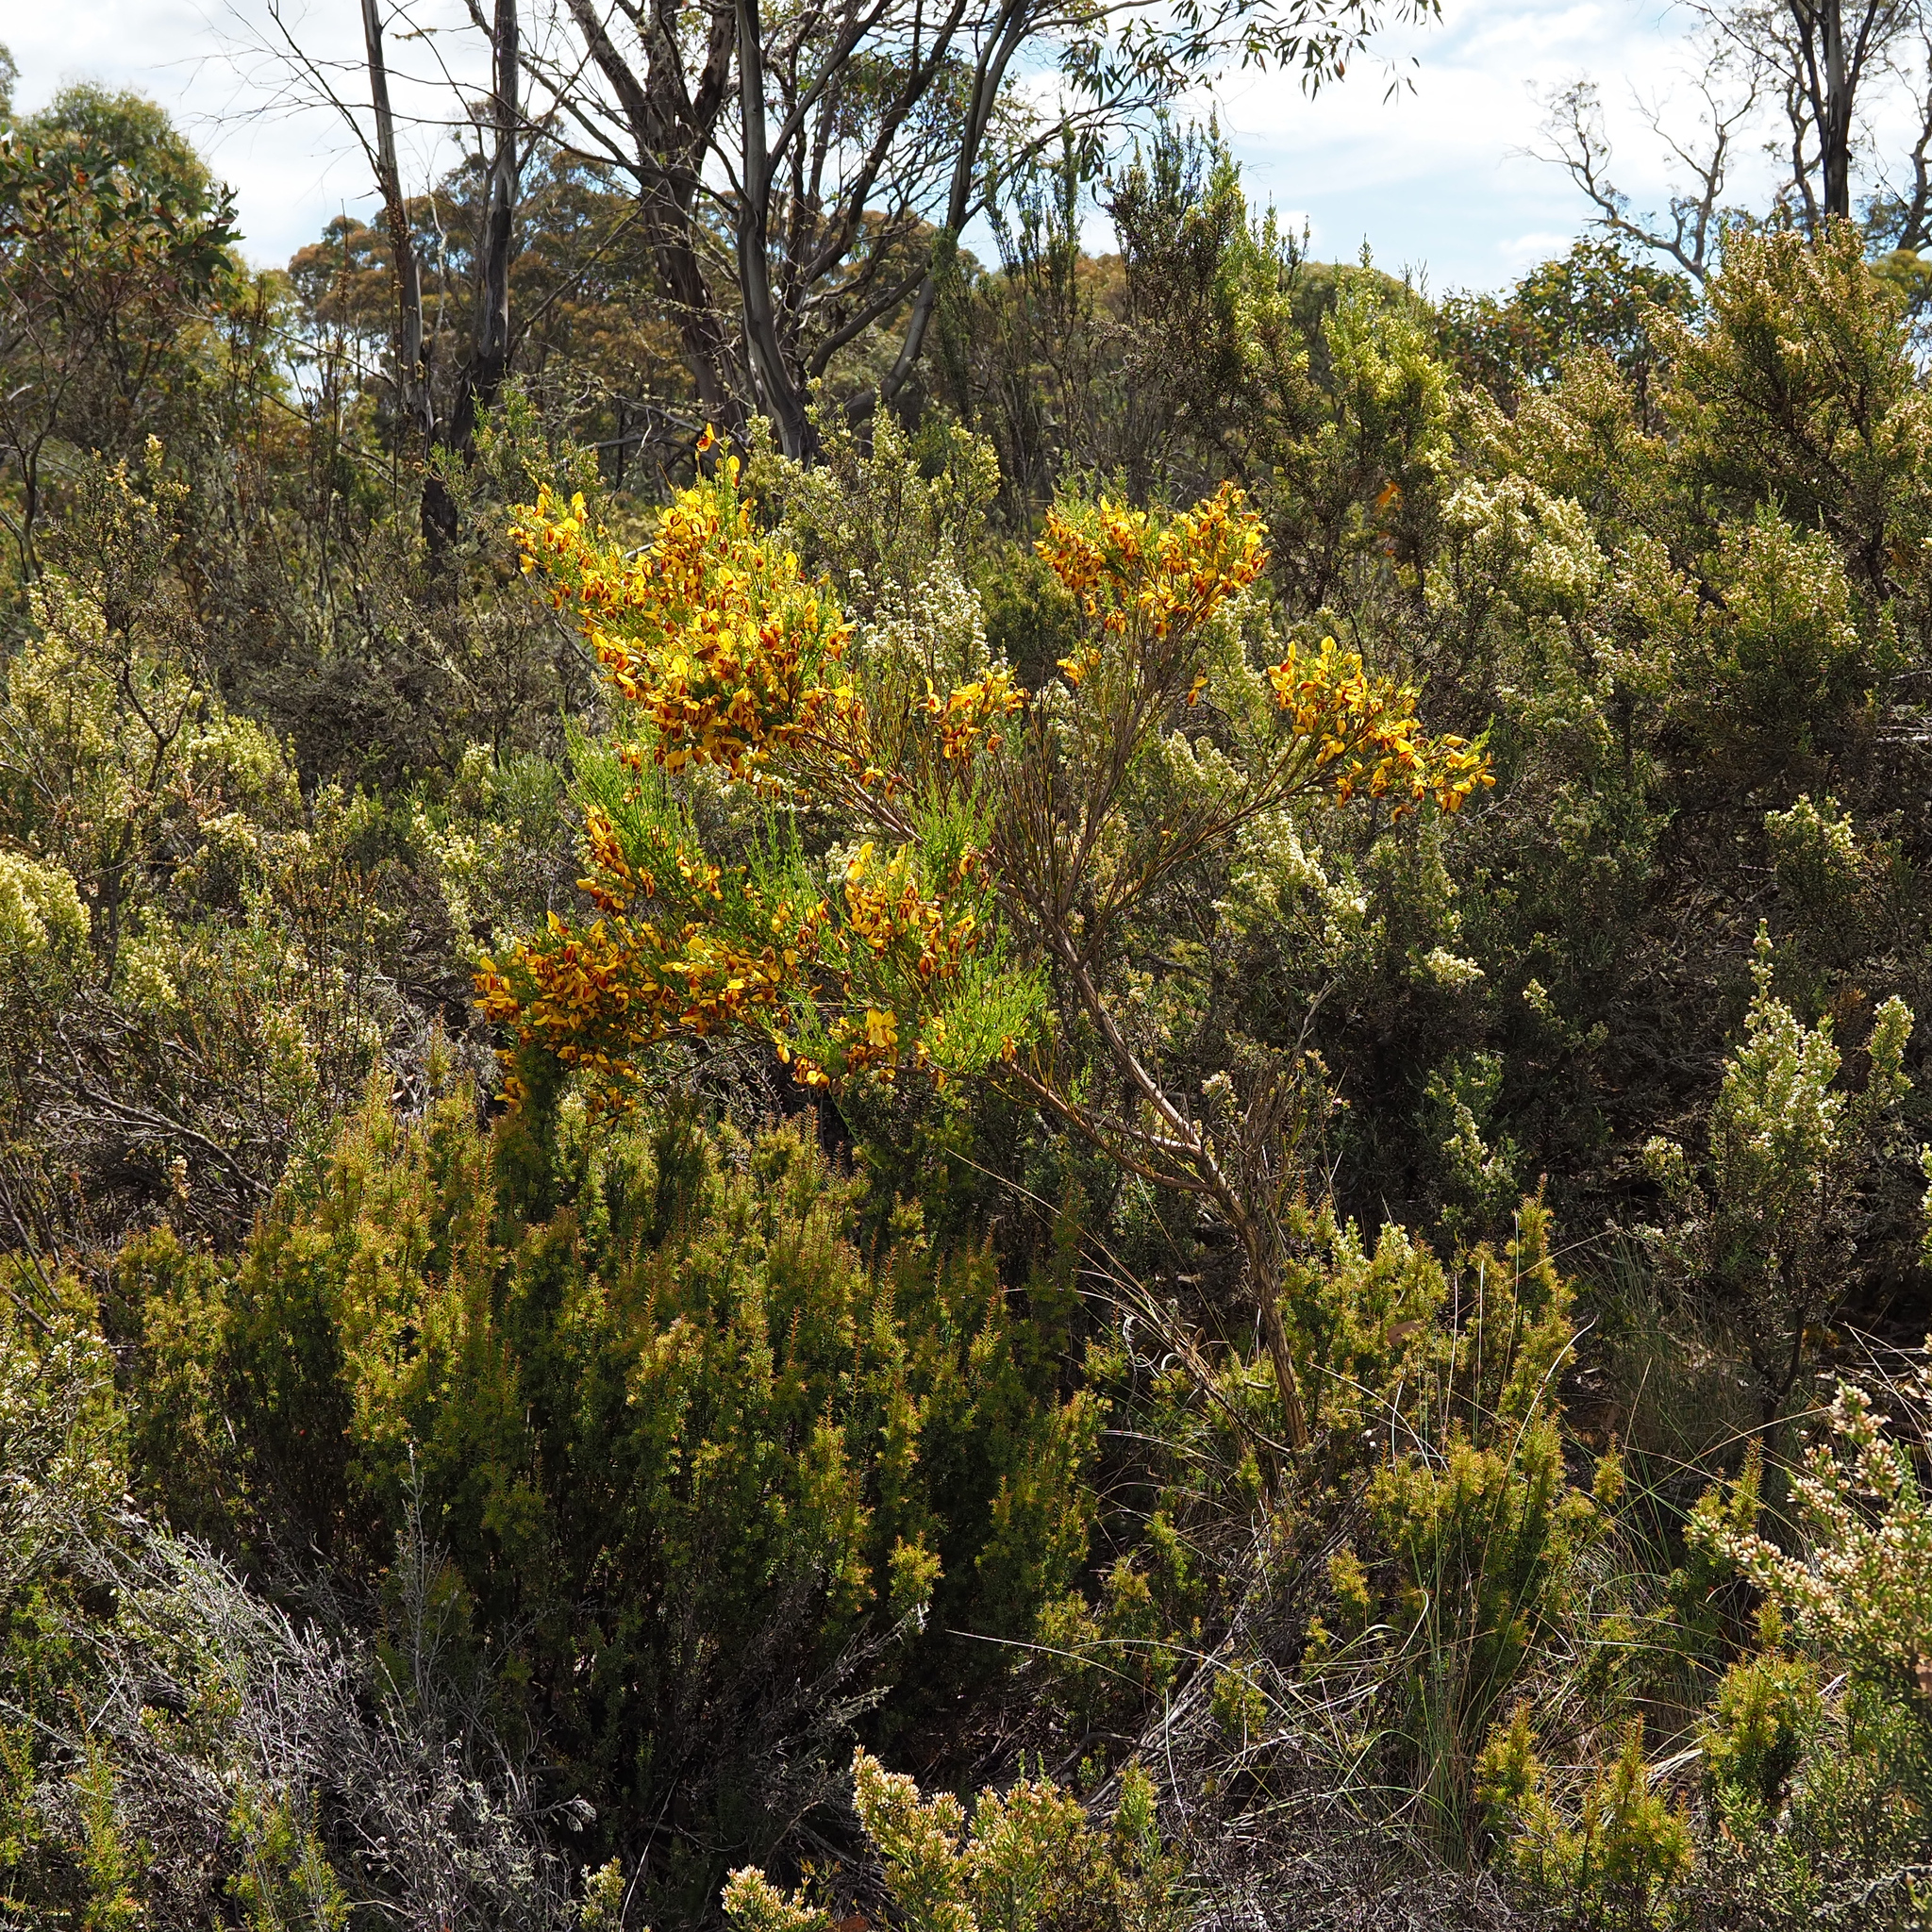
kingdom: Plantae
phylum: Tracheophyta
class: Magnoliopsida
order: Fabales
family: Fabaceae
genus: Cytisus
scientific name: Cytisus scoparius
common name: Scotch broom
